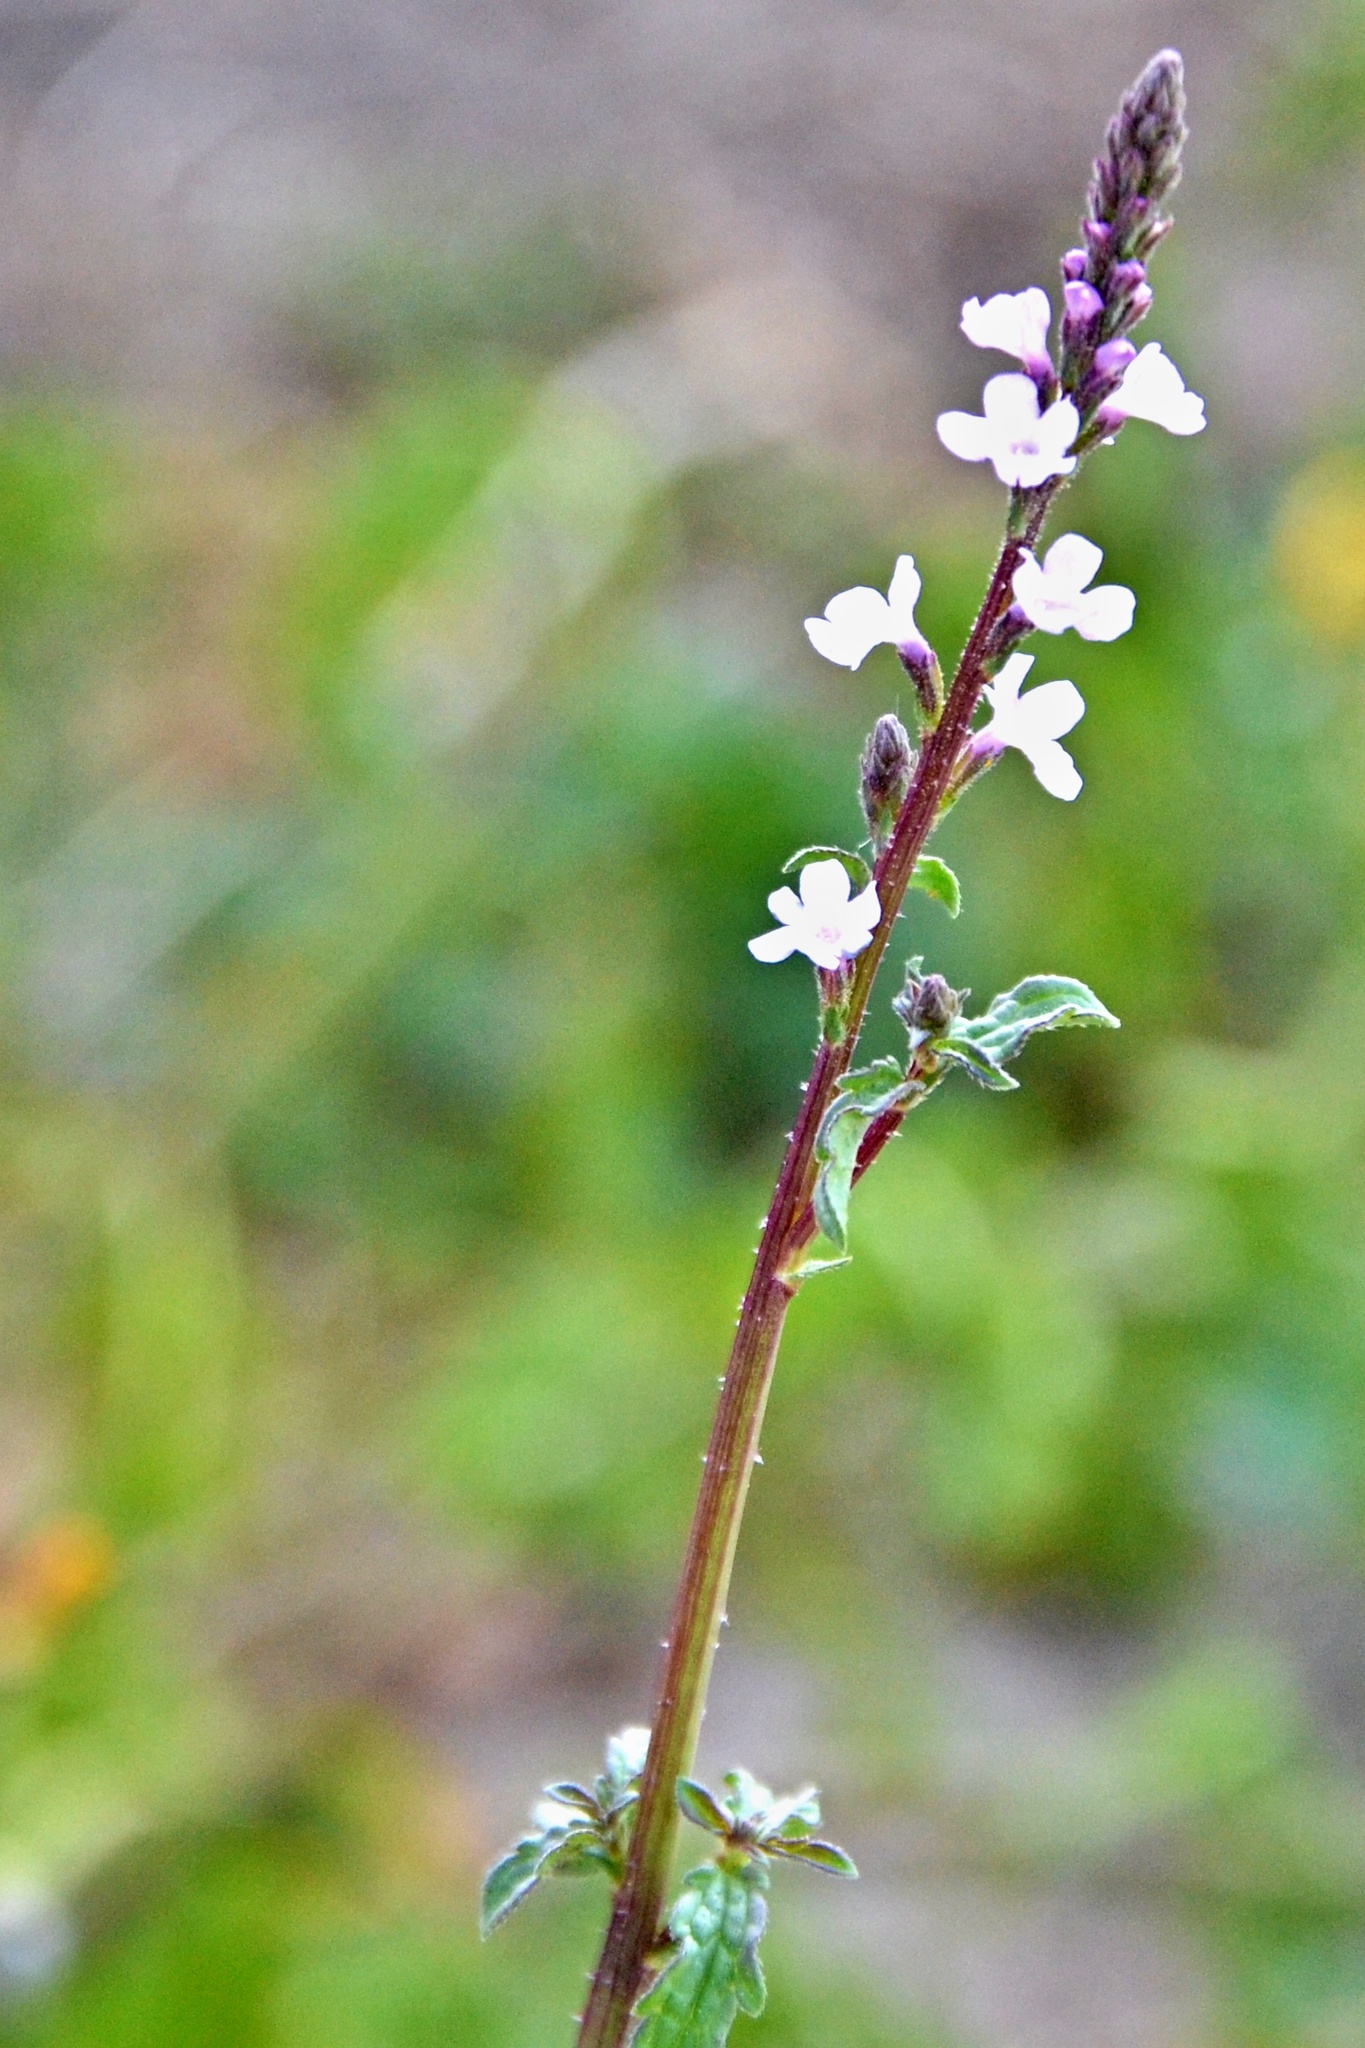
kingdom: Plantae
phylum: Tracheophyta
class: Magnoliopsida
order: Lamiales
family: Verbenaceae
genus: Verbena
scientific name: Verbena officinalis
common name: Vervain
